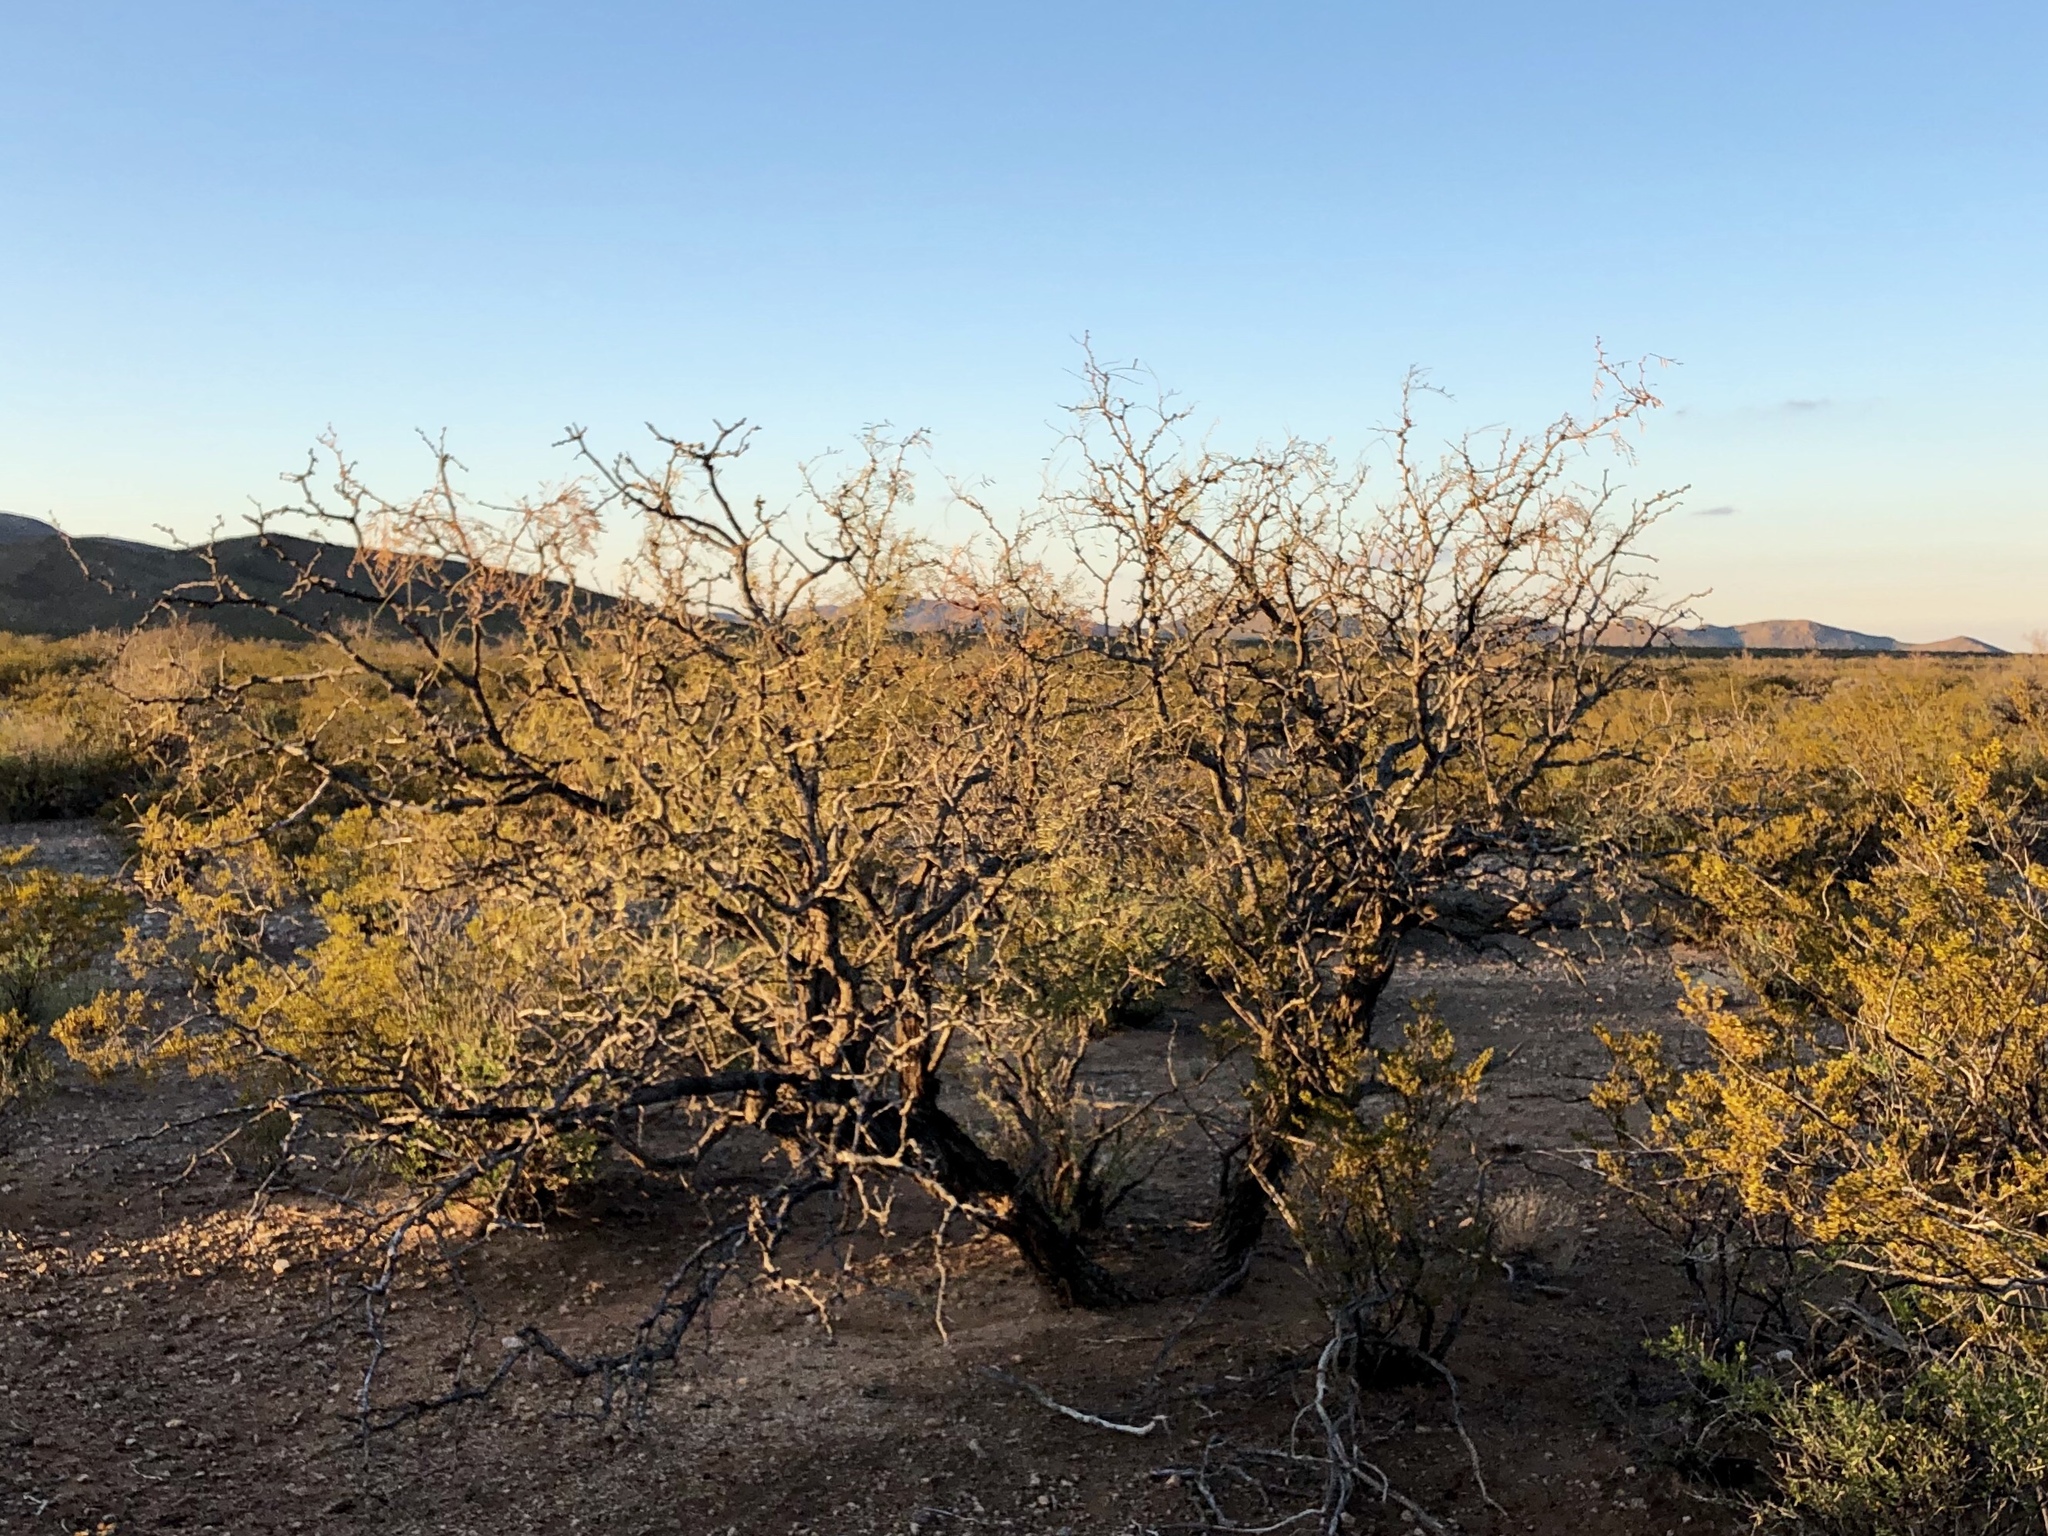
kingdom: Plantae
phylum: Tracheophyta
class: Magnoliopsida
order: Fabales
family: Fabaceae
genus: Prosopis
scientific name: Prosopis glandulosa
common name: Honey mesquite
